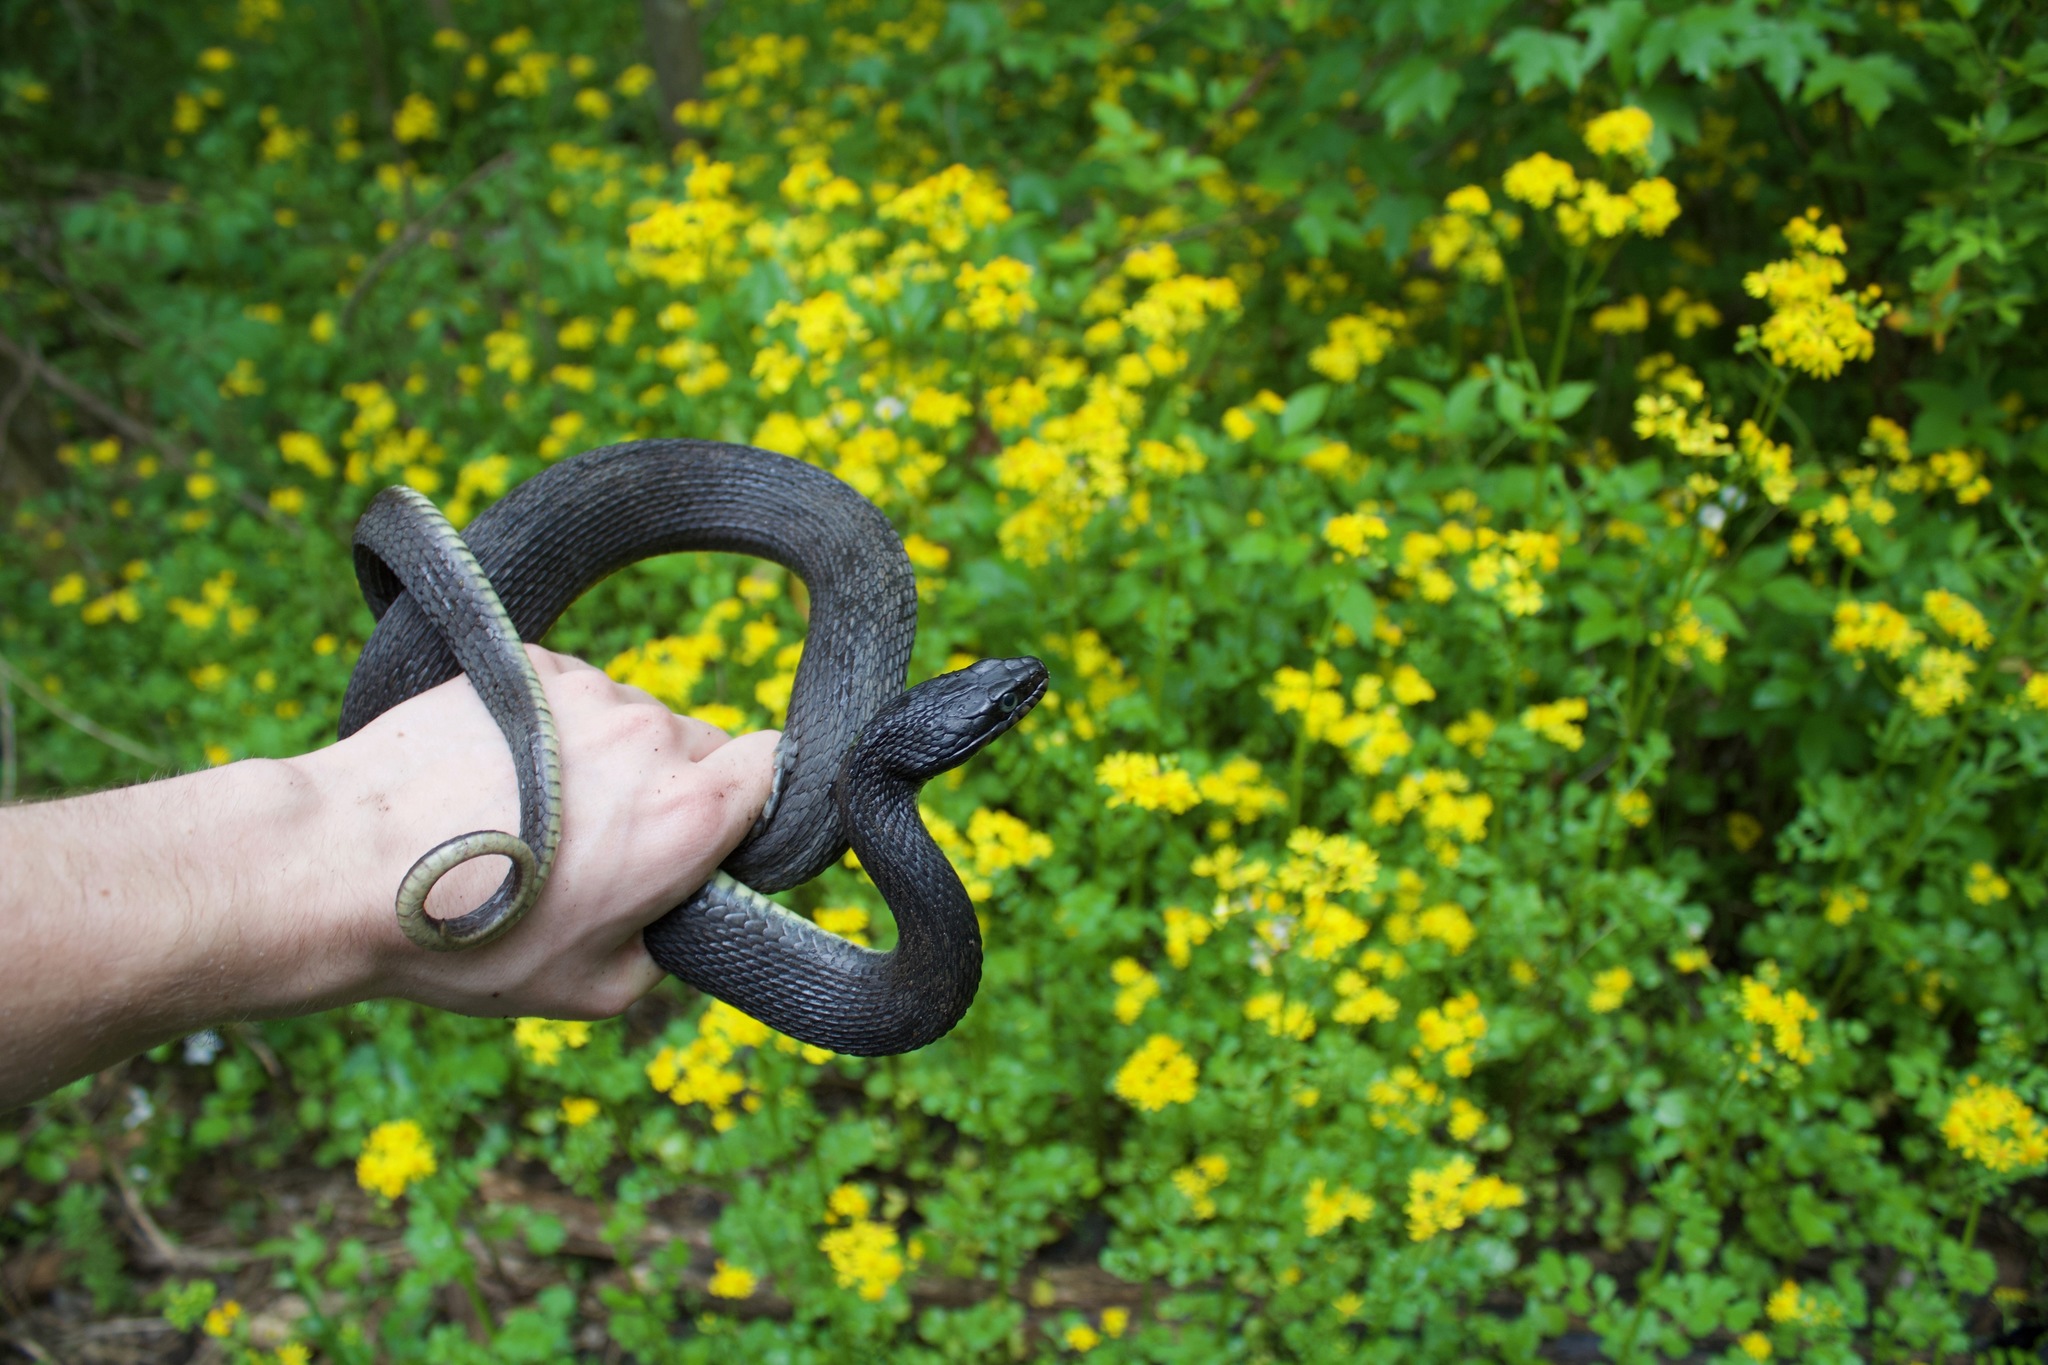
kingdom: Animalia
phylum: Chordata
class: Squamata
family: Colubridae
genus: Nerodia
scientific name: Nerodia erythrogaster
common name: Plainbelly water snake
